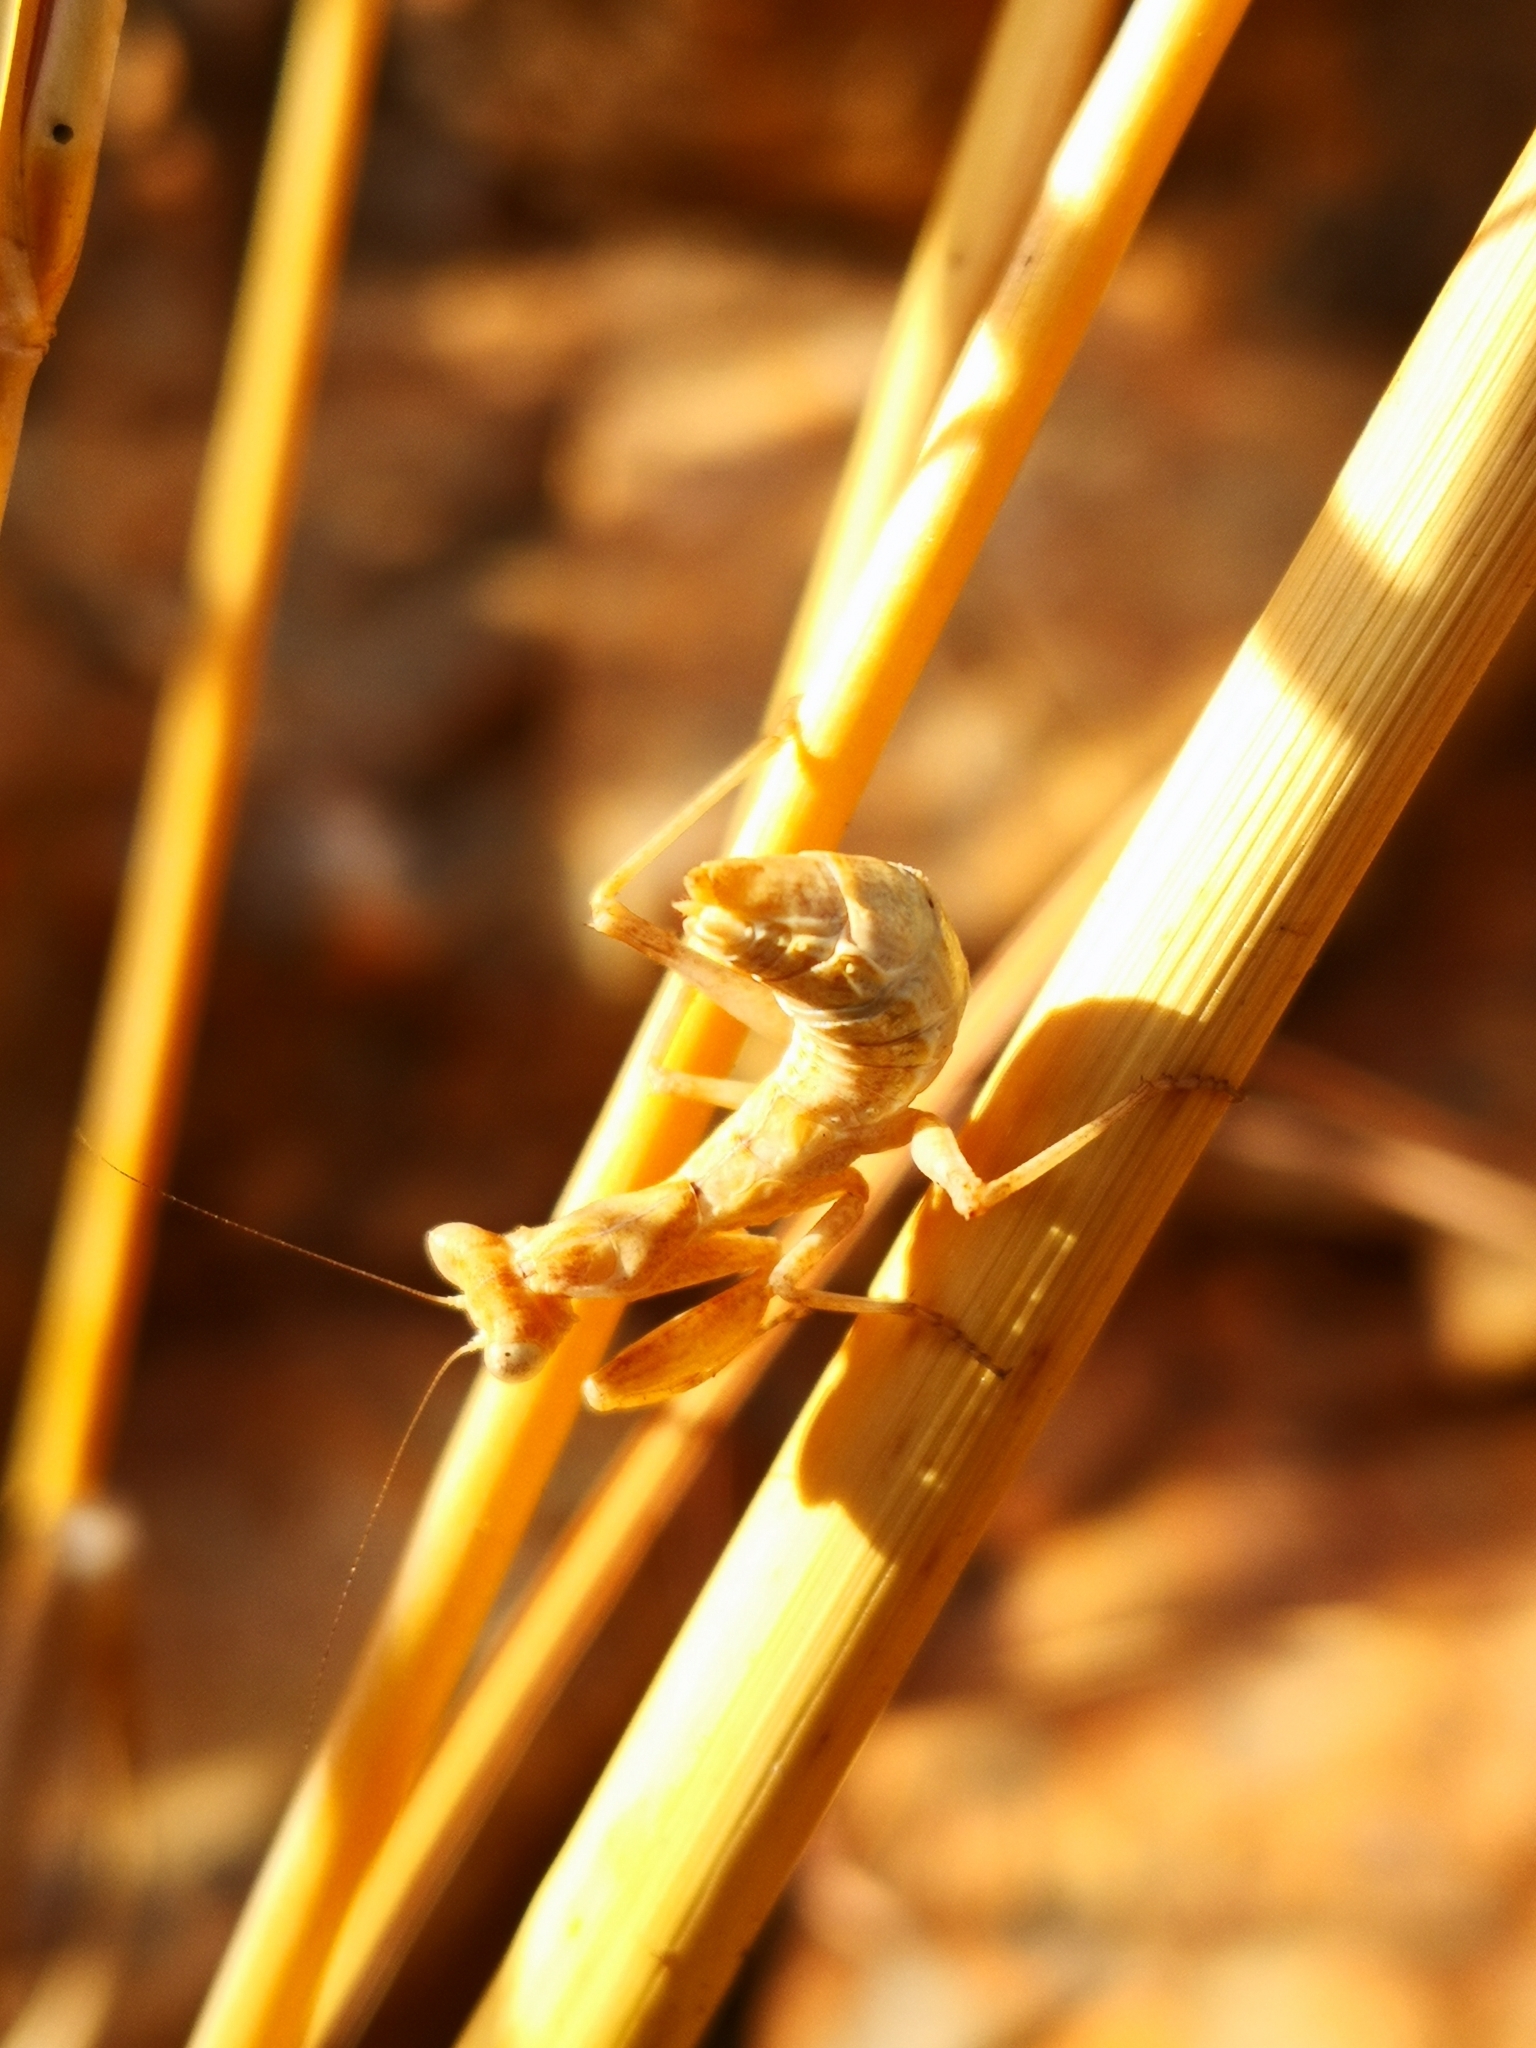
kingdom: Animalia
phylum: Arthropoda
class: Insecta
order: Mantodea
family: Amelidae
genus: Ameles
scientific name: Ameles spallanzania
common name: European dwarf mantis
